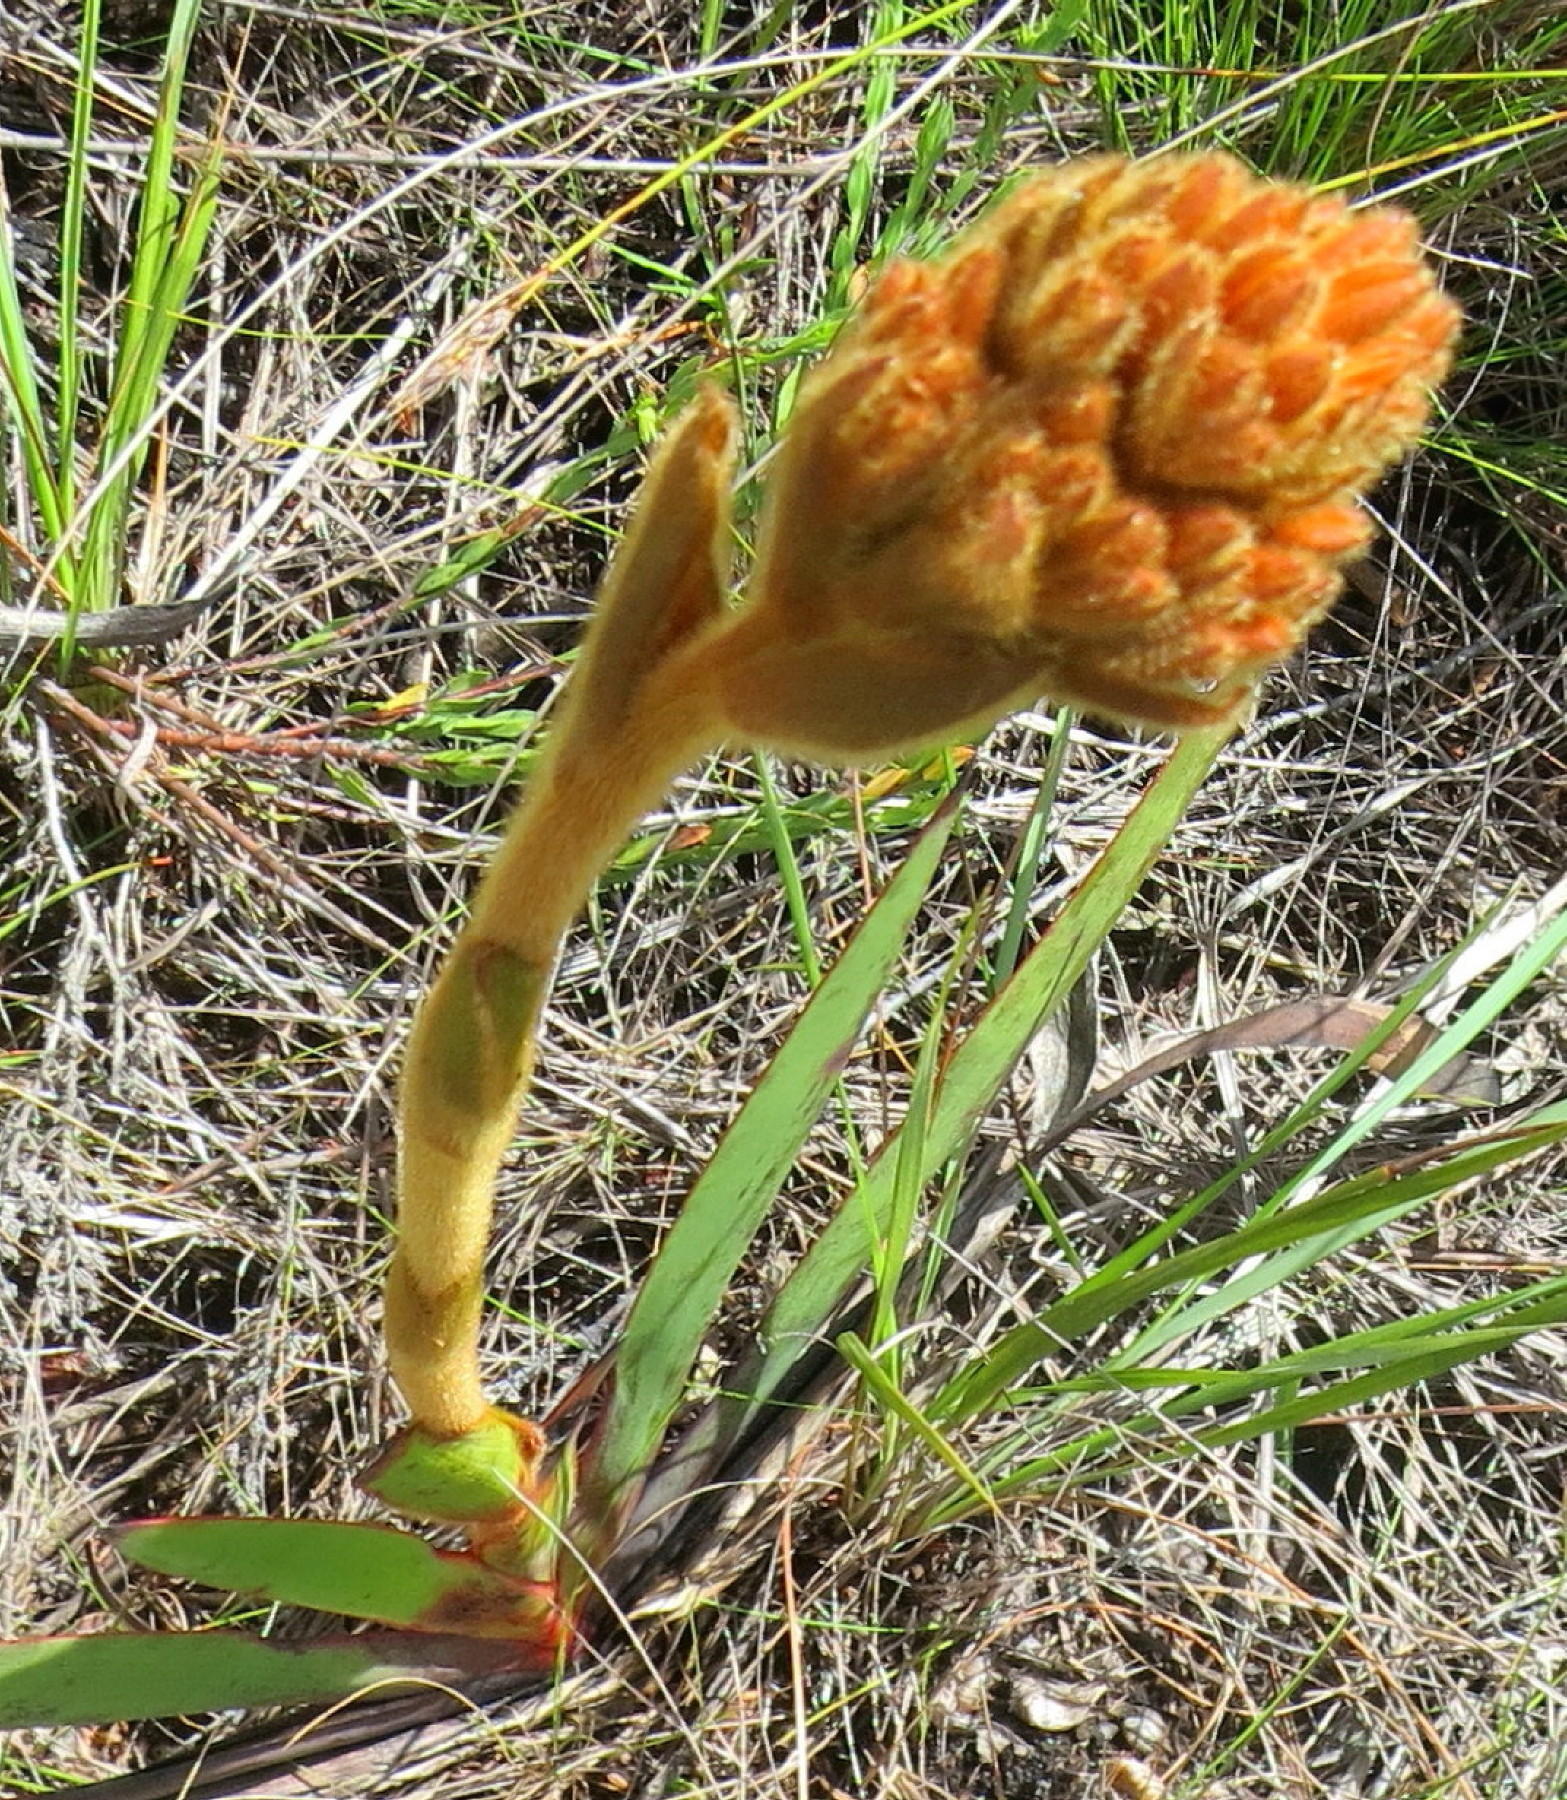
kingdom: Plantae
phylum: Tracheophyta
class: Liliopsida
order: Commelinales
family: Haemodoraceae
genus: Dilatris
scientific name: Dilatris viscosa
